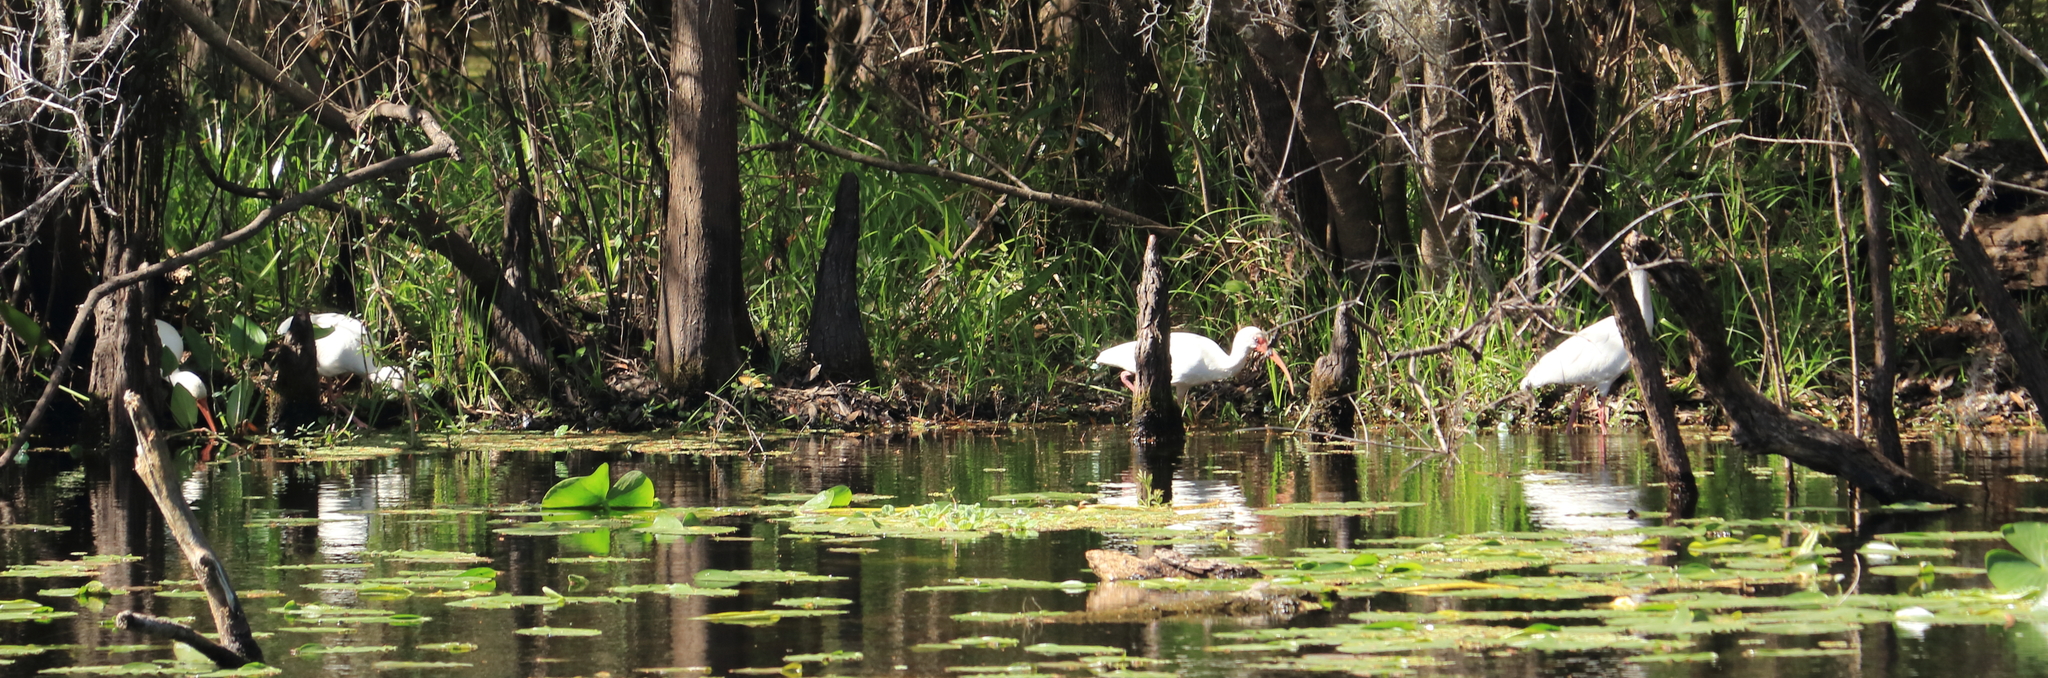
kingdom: Animalia
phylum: Chordata
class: Aves
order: Pelecaniformes
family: Threskiornithidae
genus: Eudocimus
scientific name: Eudocimus albus
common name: White ibis
